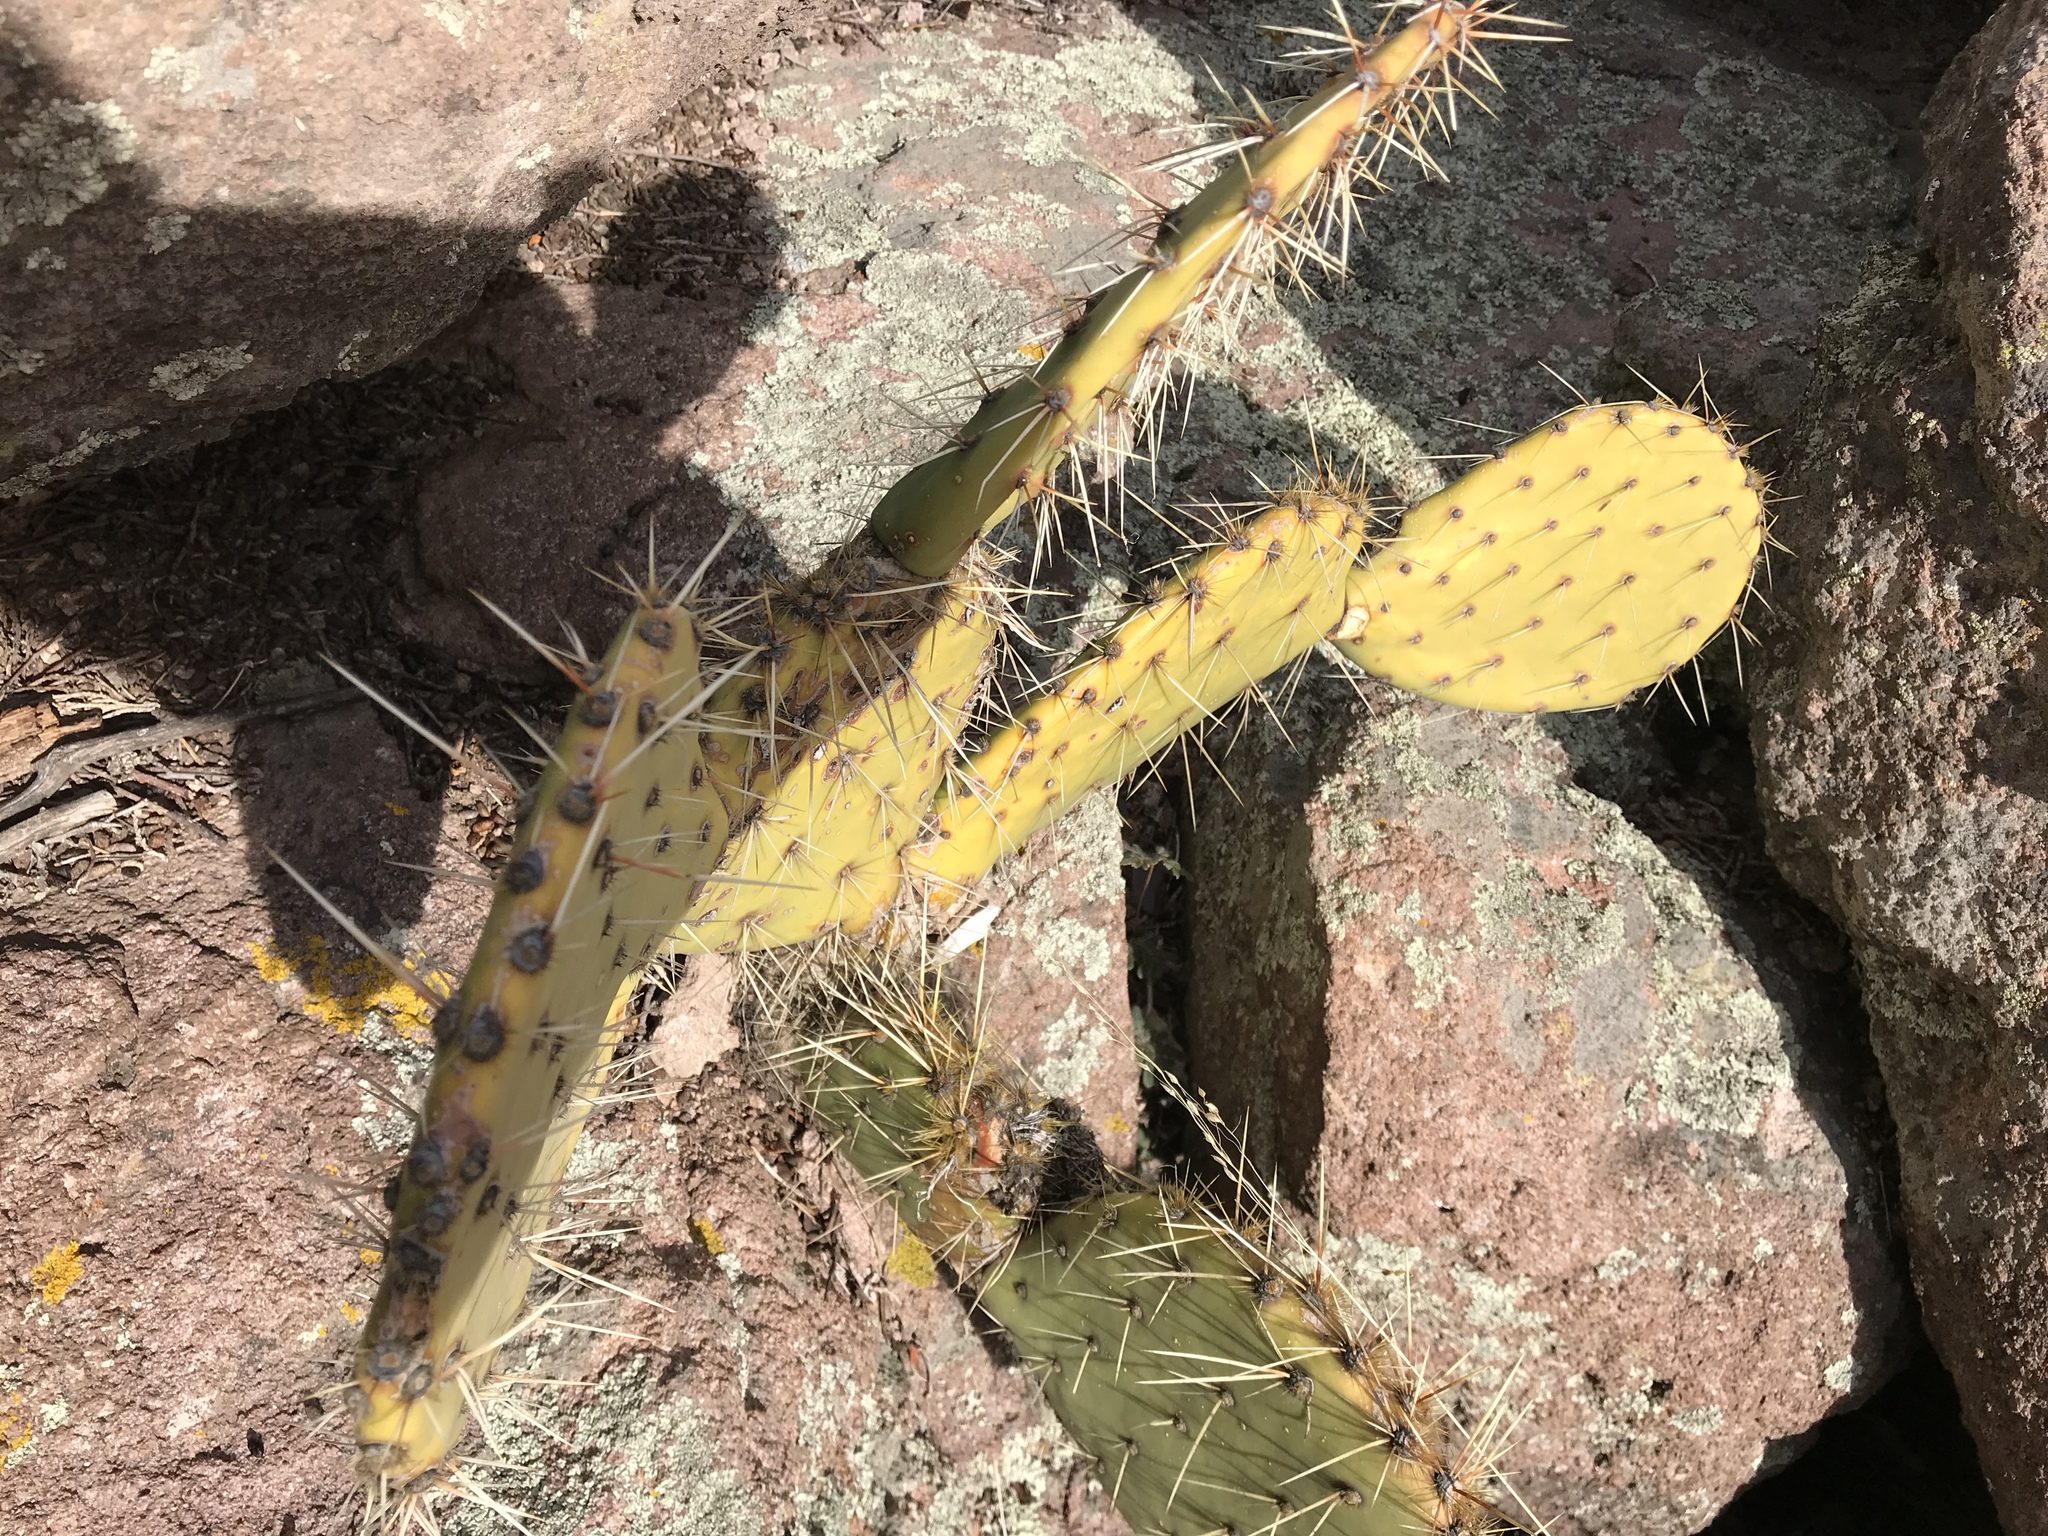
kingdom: Plantae
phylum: Tracheophyta
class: Magnoliopsida
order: Caryophyllales
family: Cactaceae
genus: Opuntia
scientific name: Opuntia phaeacantha
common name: New mexico prickly-pear
